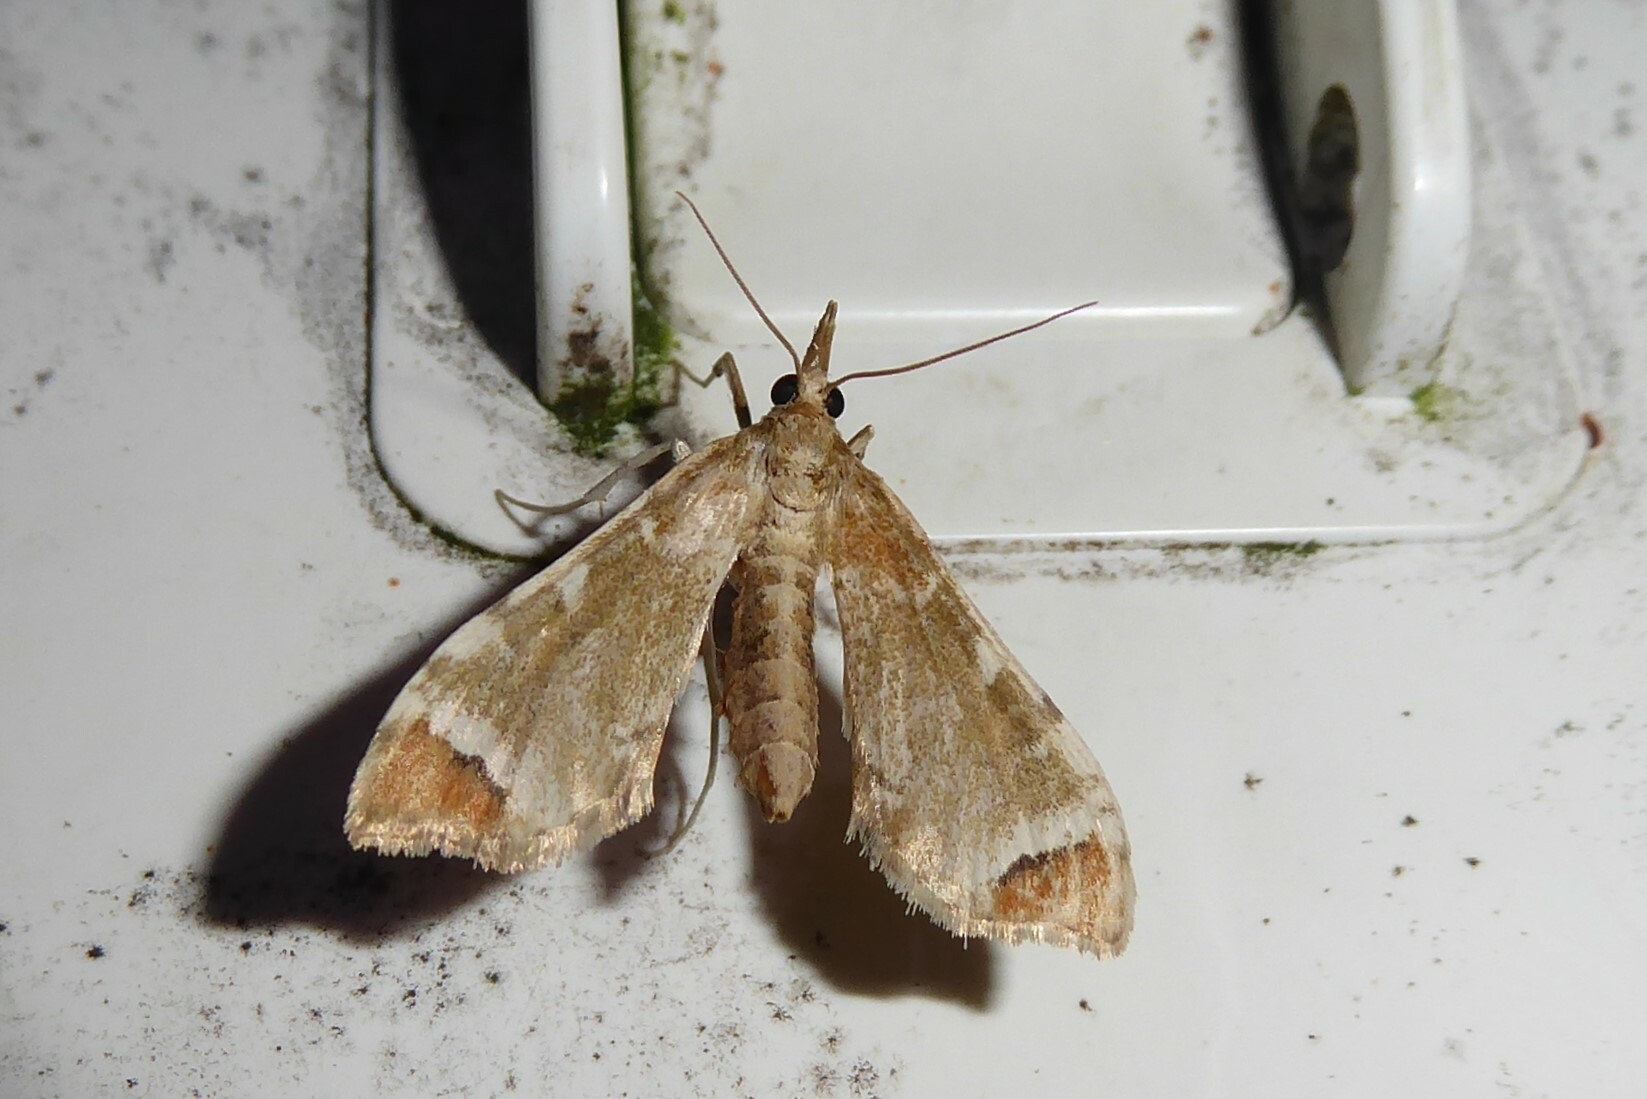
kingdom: Animalia
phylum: Arthropoda
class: Insecta
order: Lepidoptera
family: Crambidae
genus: Sceliodes
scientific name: Sceliodes cordalis
